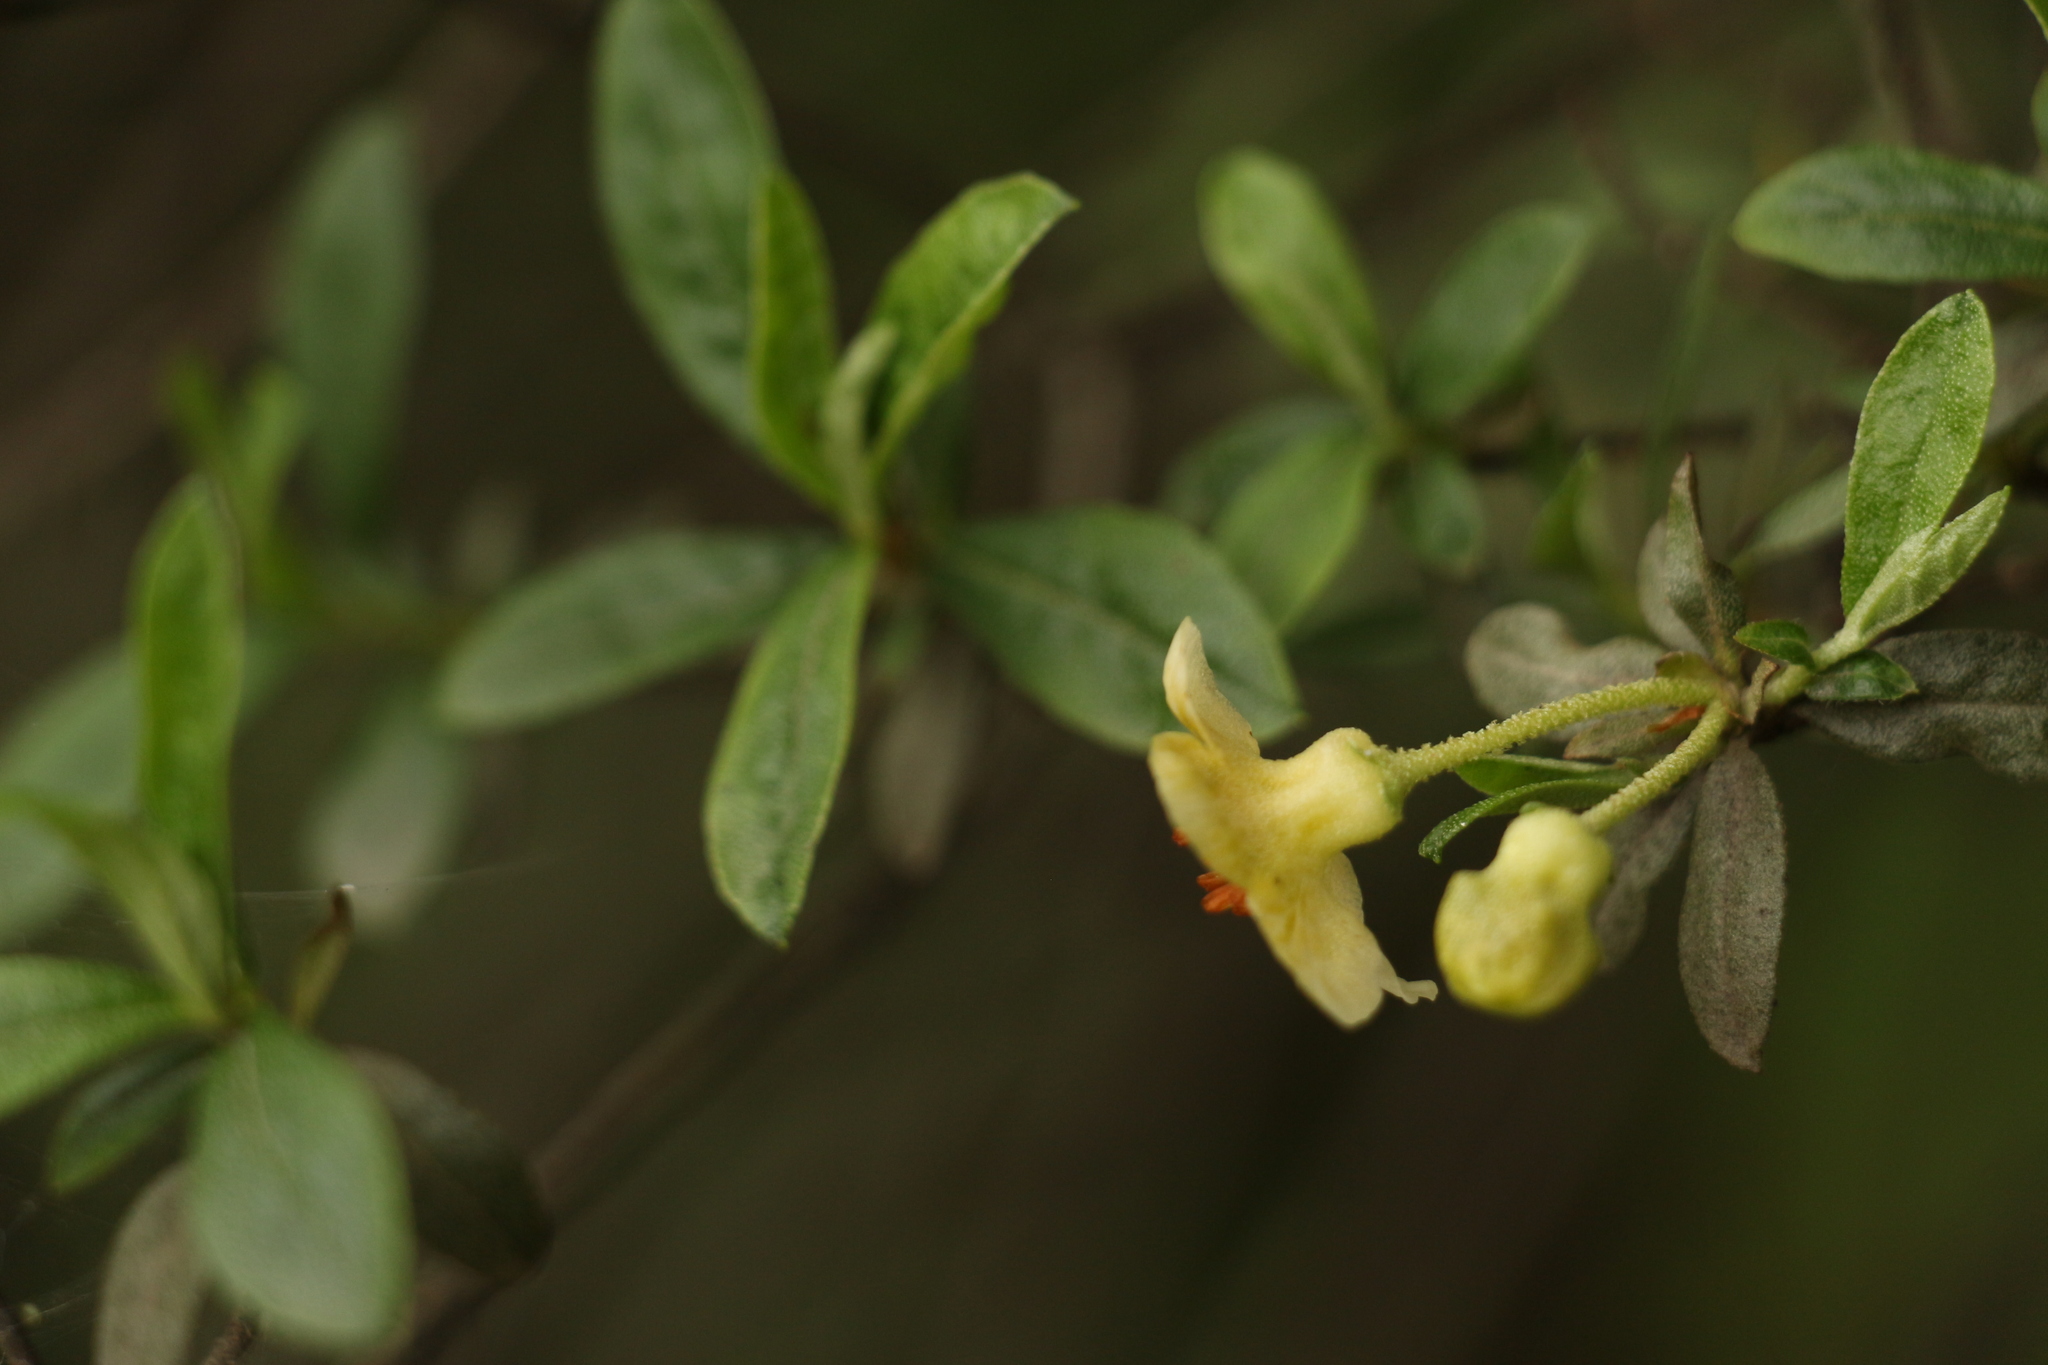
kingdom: Plantae
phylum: Tracheophyta
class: Magnoliopsida
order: Ericales
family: Ericaceae
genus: Rhododendron
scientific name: Rhododendron lepidotum
